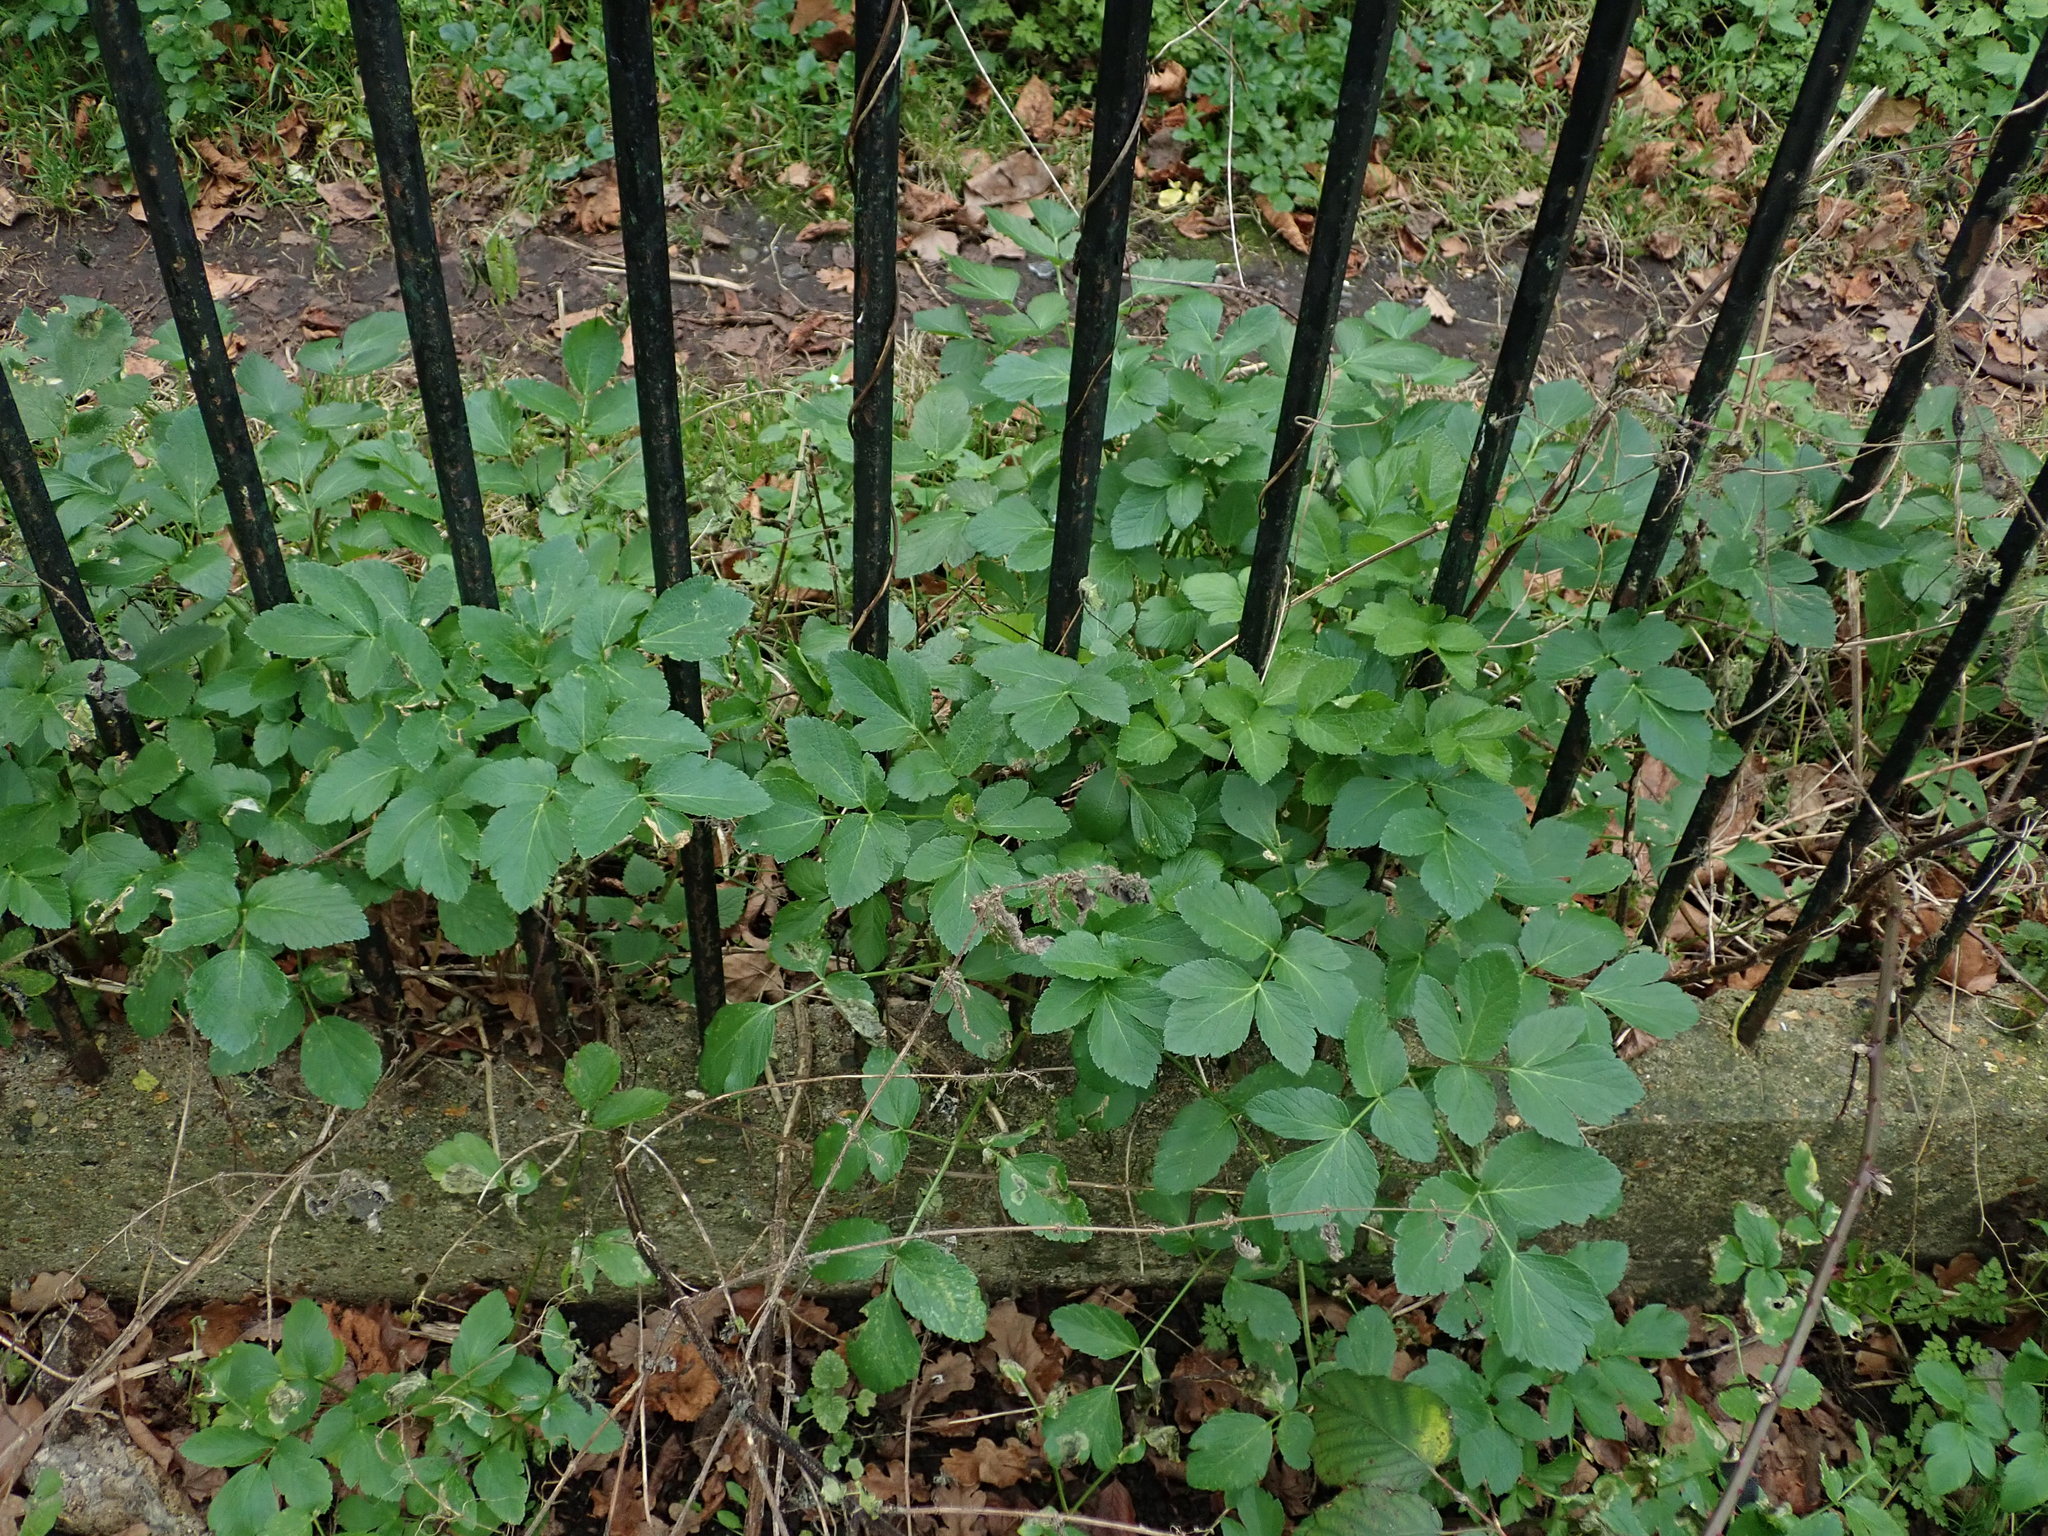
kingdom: Plantae
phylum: Tracheophyta
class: Magnoliopsida
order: Apiales
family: Apiaceae
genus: Smyrnium
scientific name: Smyrnium olusatrum
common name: Alexanders
